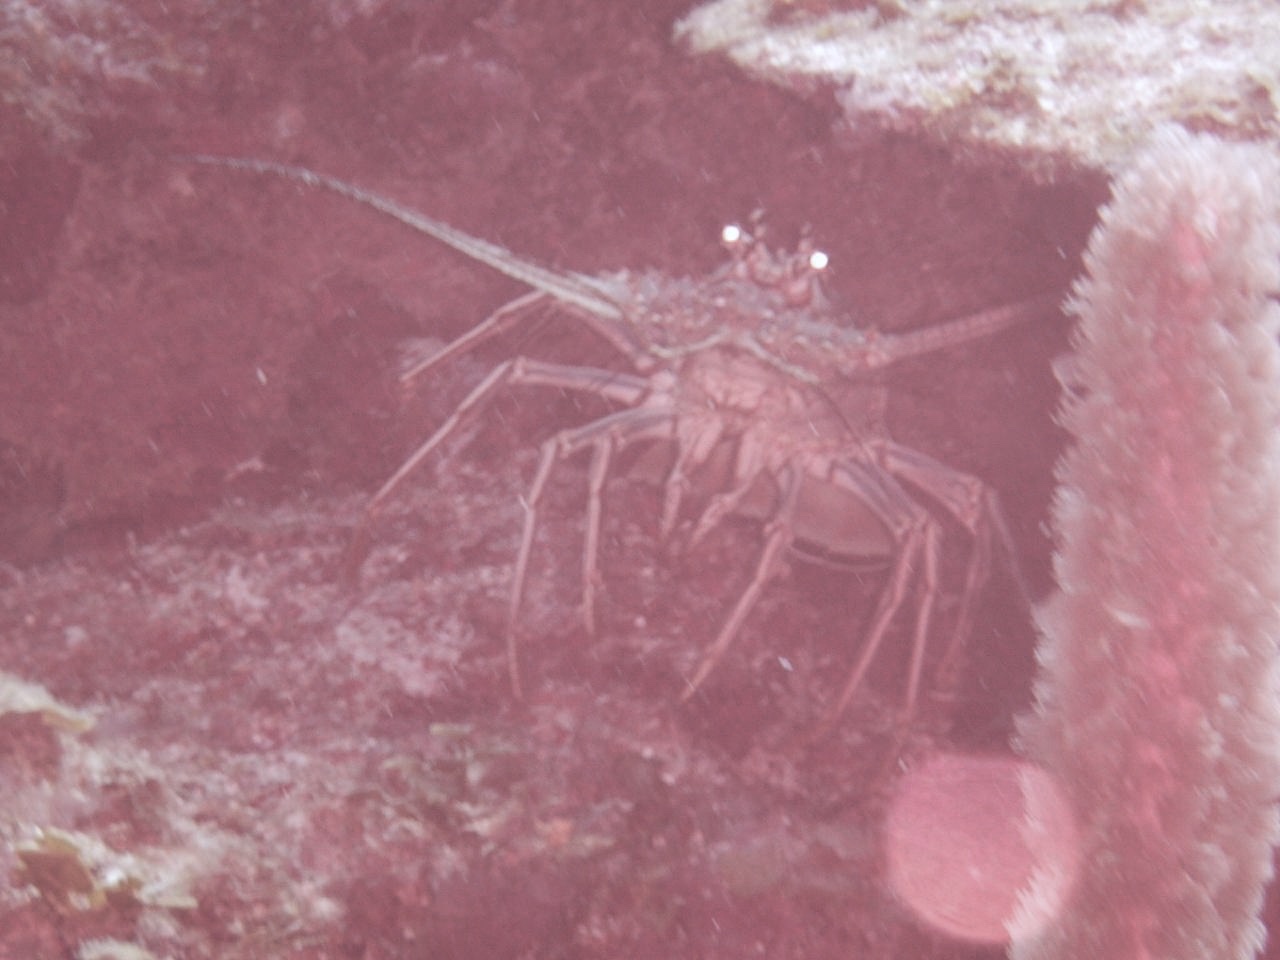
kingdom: Animalia
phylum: Arthropoda
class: Malacostraca
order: Decapoda
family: Palinuridae
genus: Panulirus
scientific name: Panulirus argus
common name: Caribbean spiny lobster
